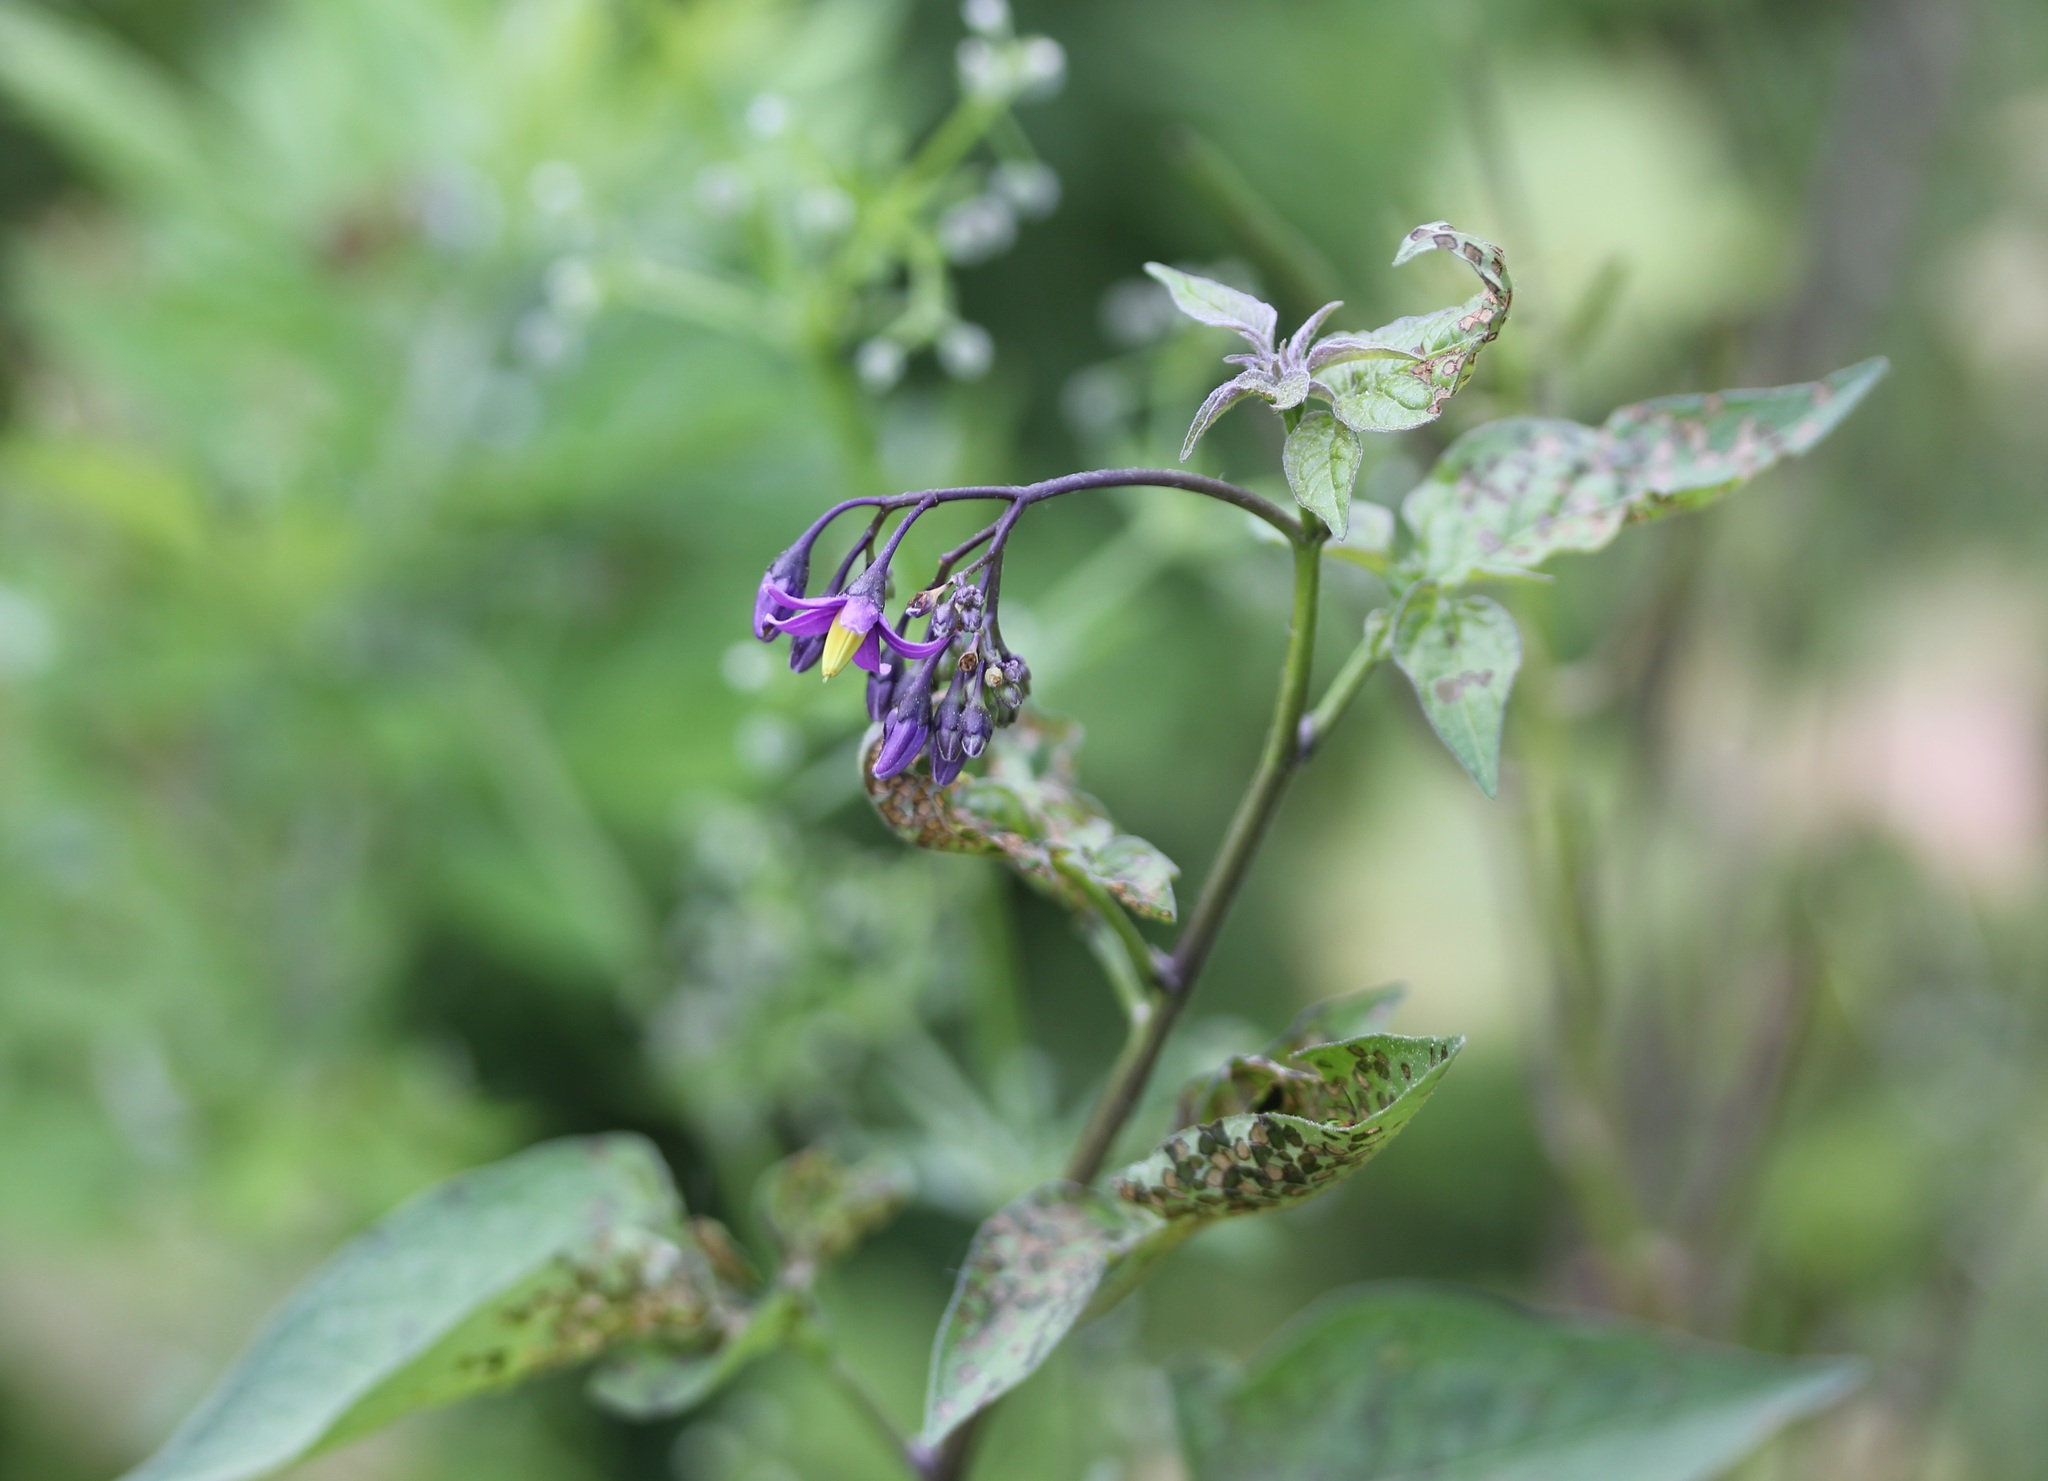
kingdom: Plantae
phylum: Tracheophyta
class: Magnoliopsida
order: Solanales
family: Solanaceae
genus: Solanum
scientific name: Solanum dulcamara
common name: Climbing nightshade
